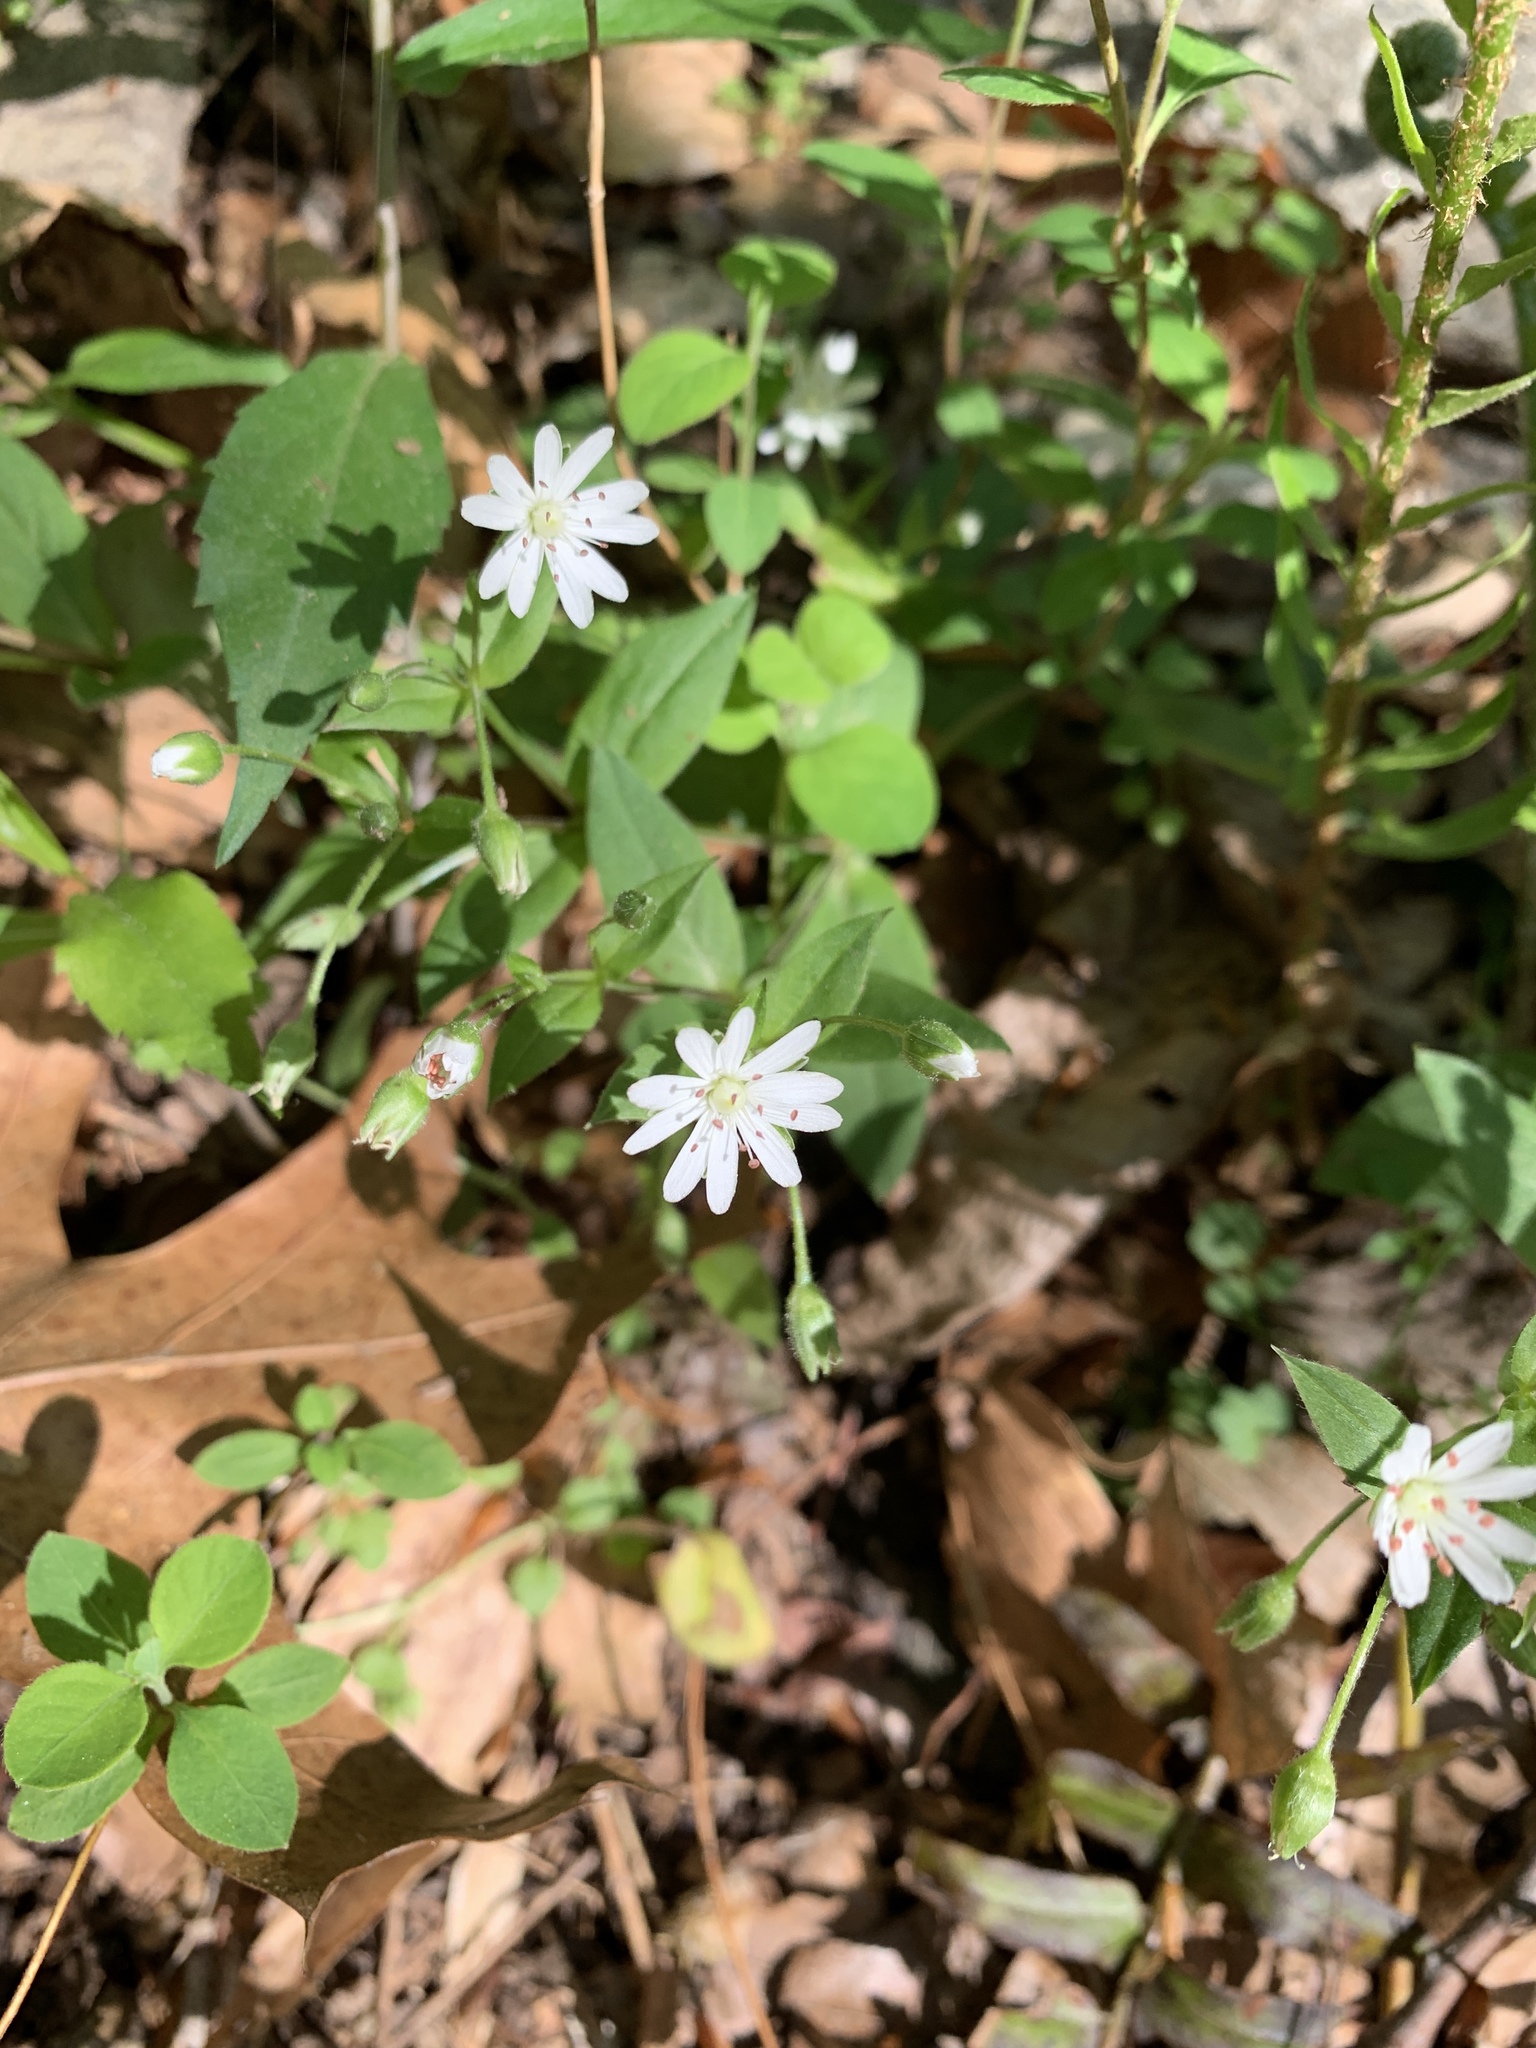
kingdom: Plantae
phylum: Tracheophyta
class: Magnoliopsida
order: Caryophyllales
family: Caryophyllaceae
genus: Stellaria
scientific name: Stellaria pubera
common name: Star chickweed
